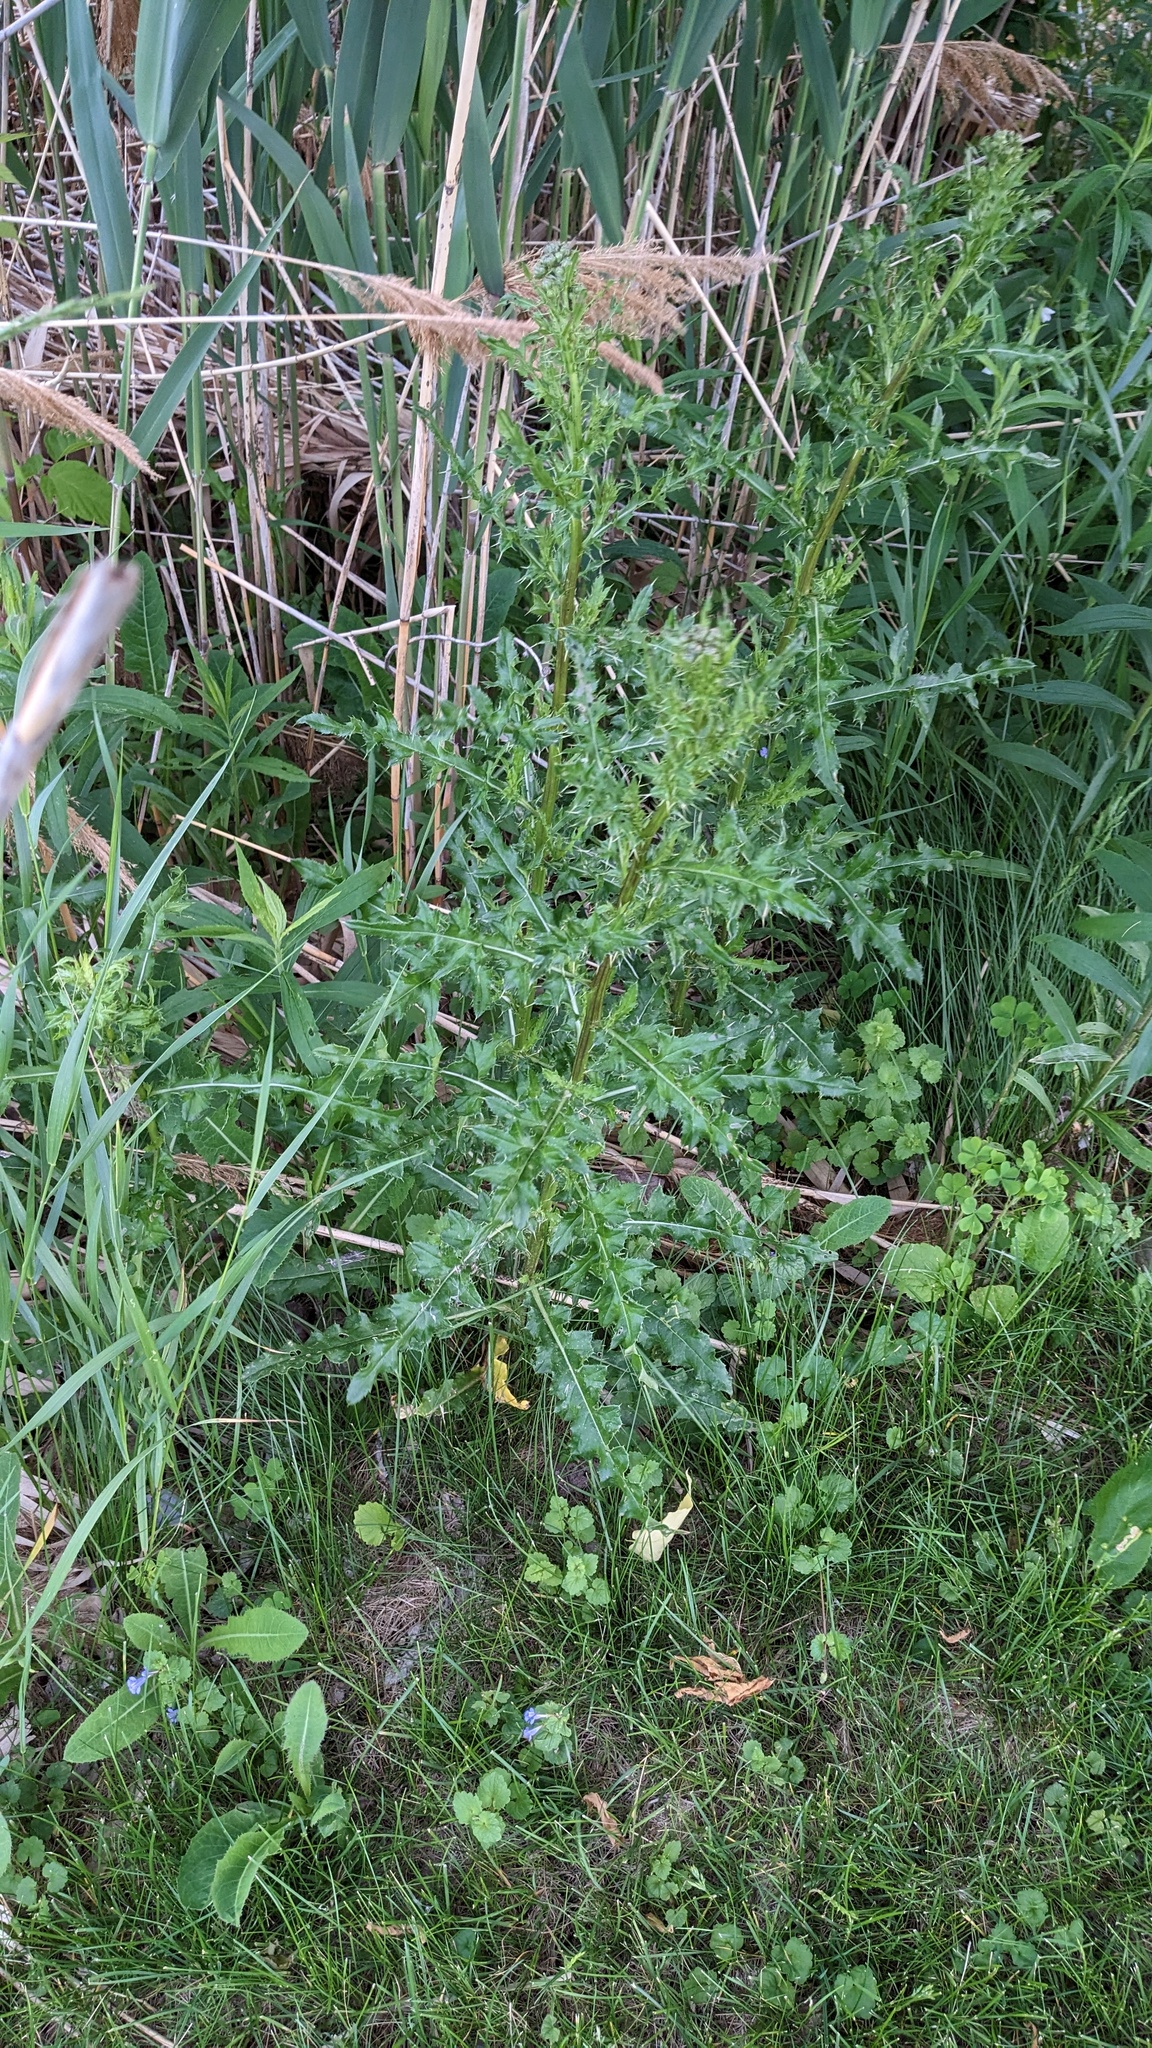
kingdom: Plantae
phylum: Tracheophyta
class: Magnoliopsida
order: Asterales
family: Asteraceae
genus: Cirsium
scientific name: Cirsium arvense
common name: Creeping thistle
